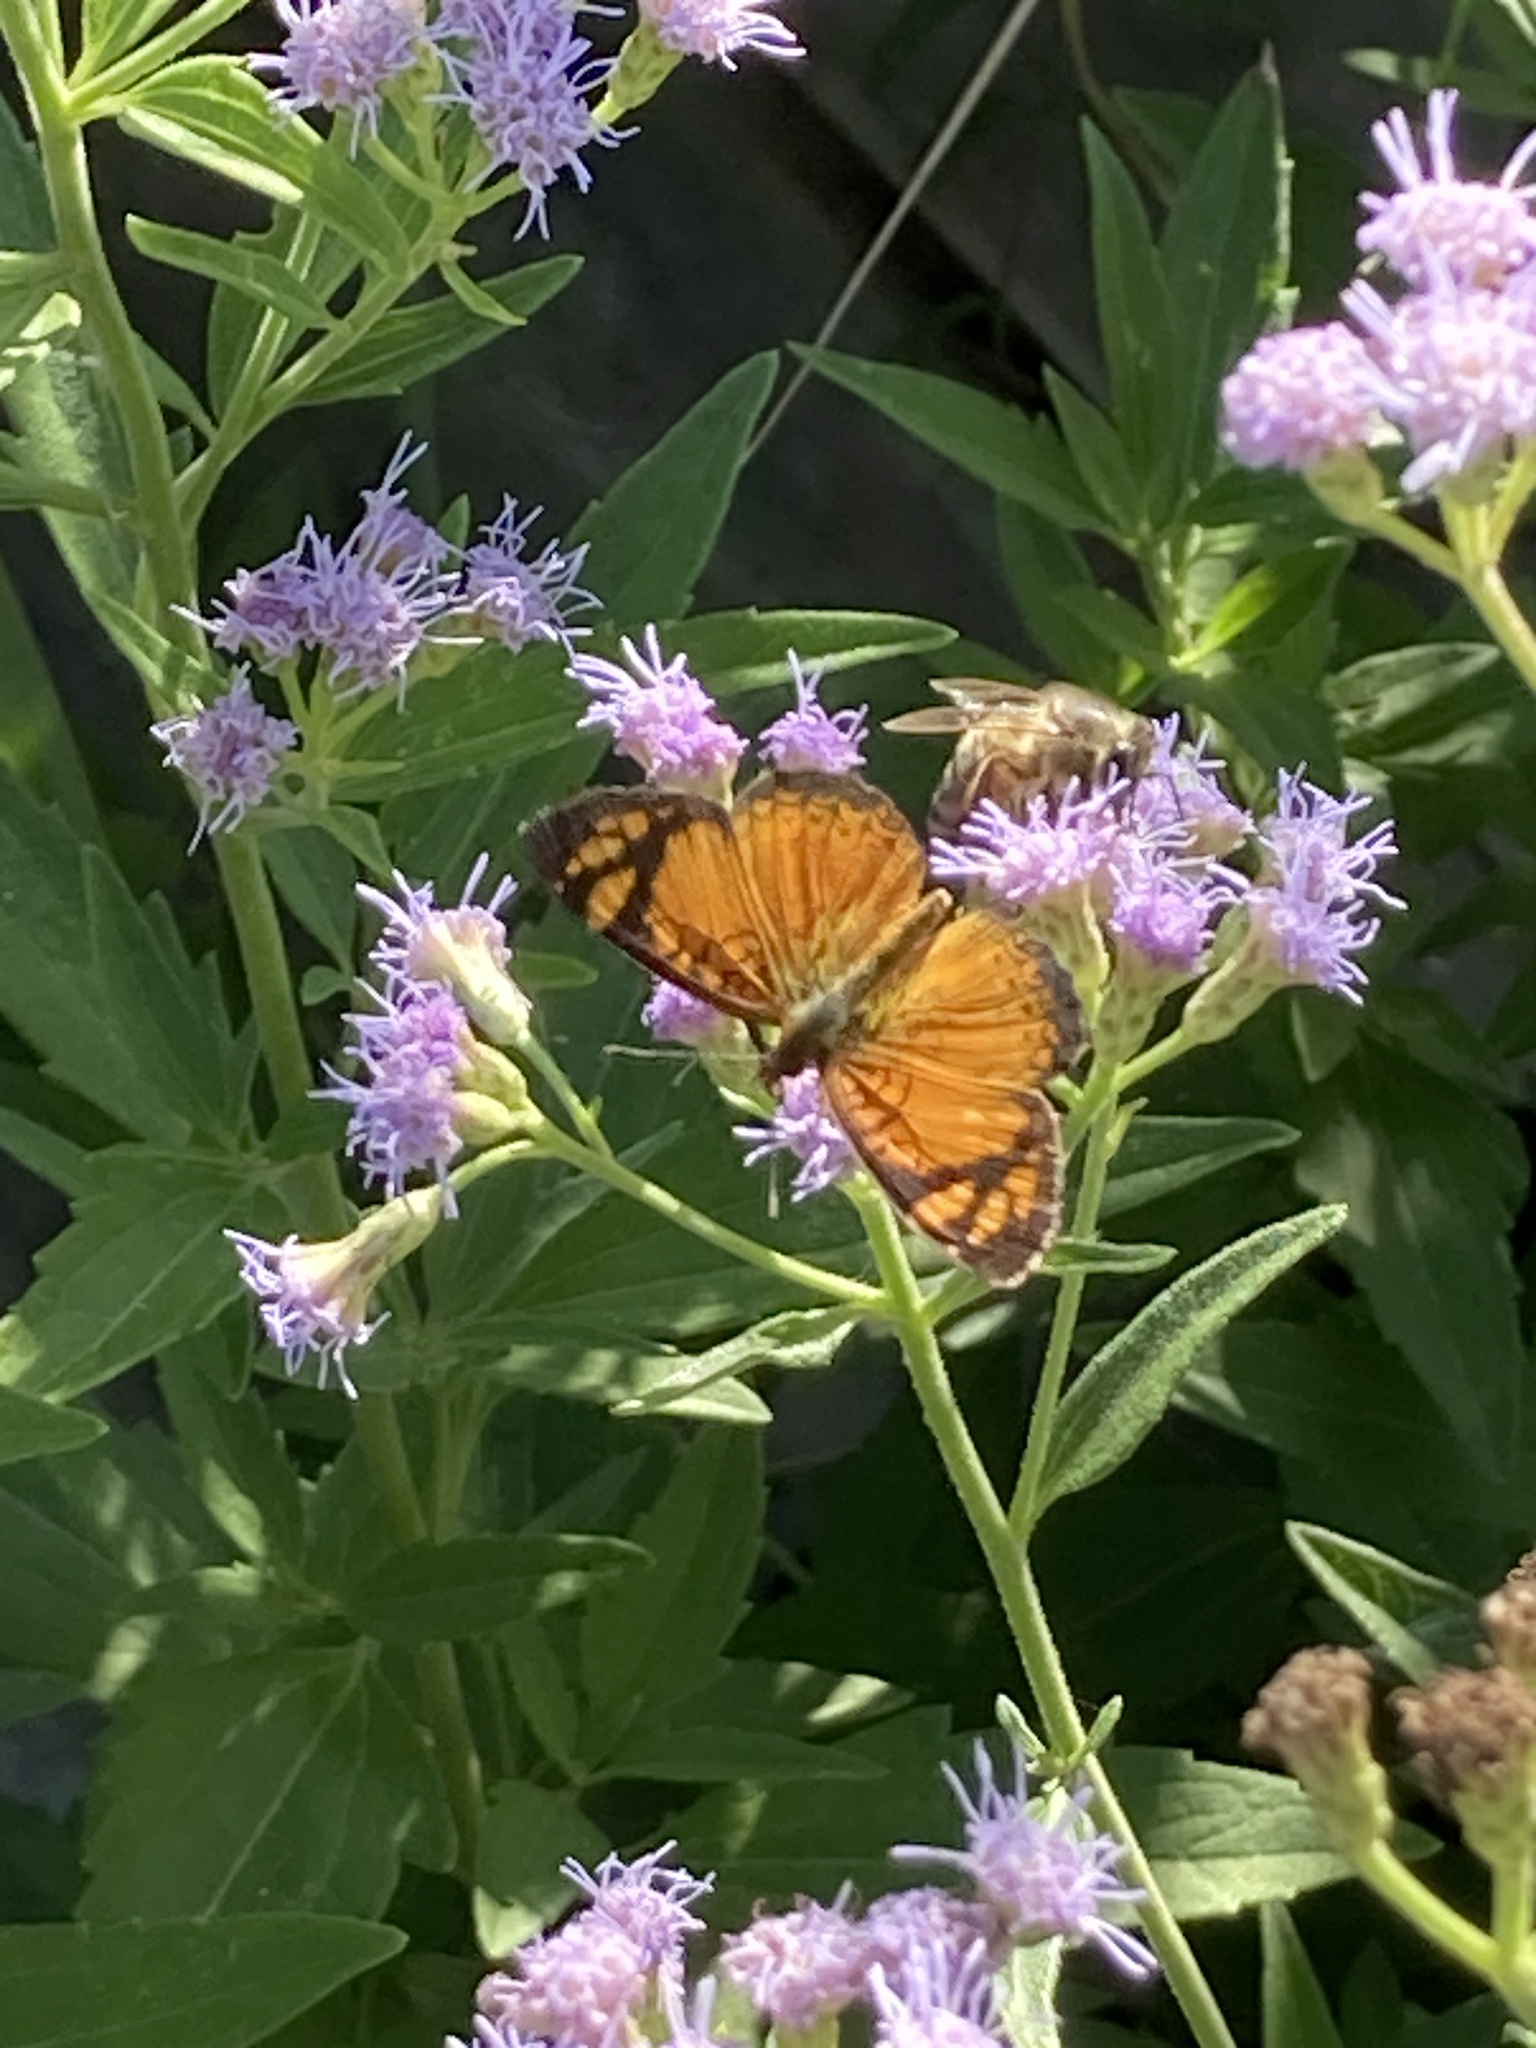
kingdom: Animalia
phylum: Arthropoda
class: Insecta
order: Lepidoptera
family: Nymphalidae
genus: Tegosa
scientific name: Tegosa orobia
